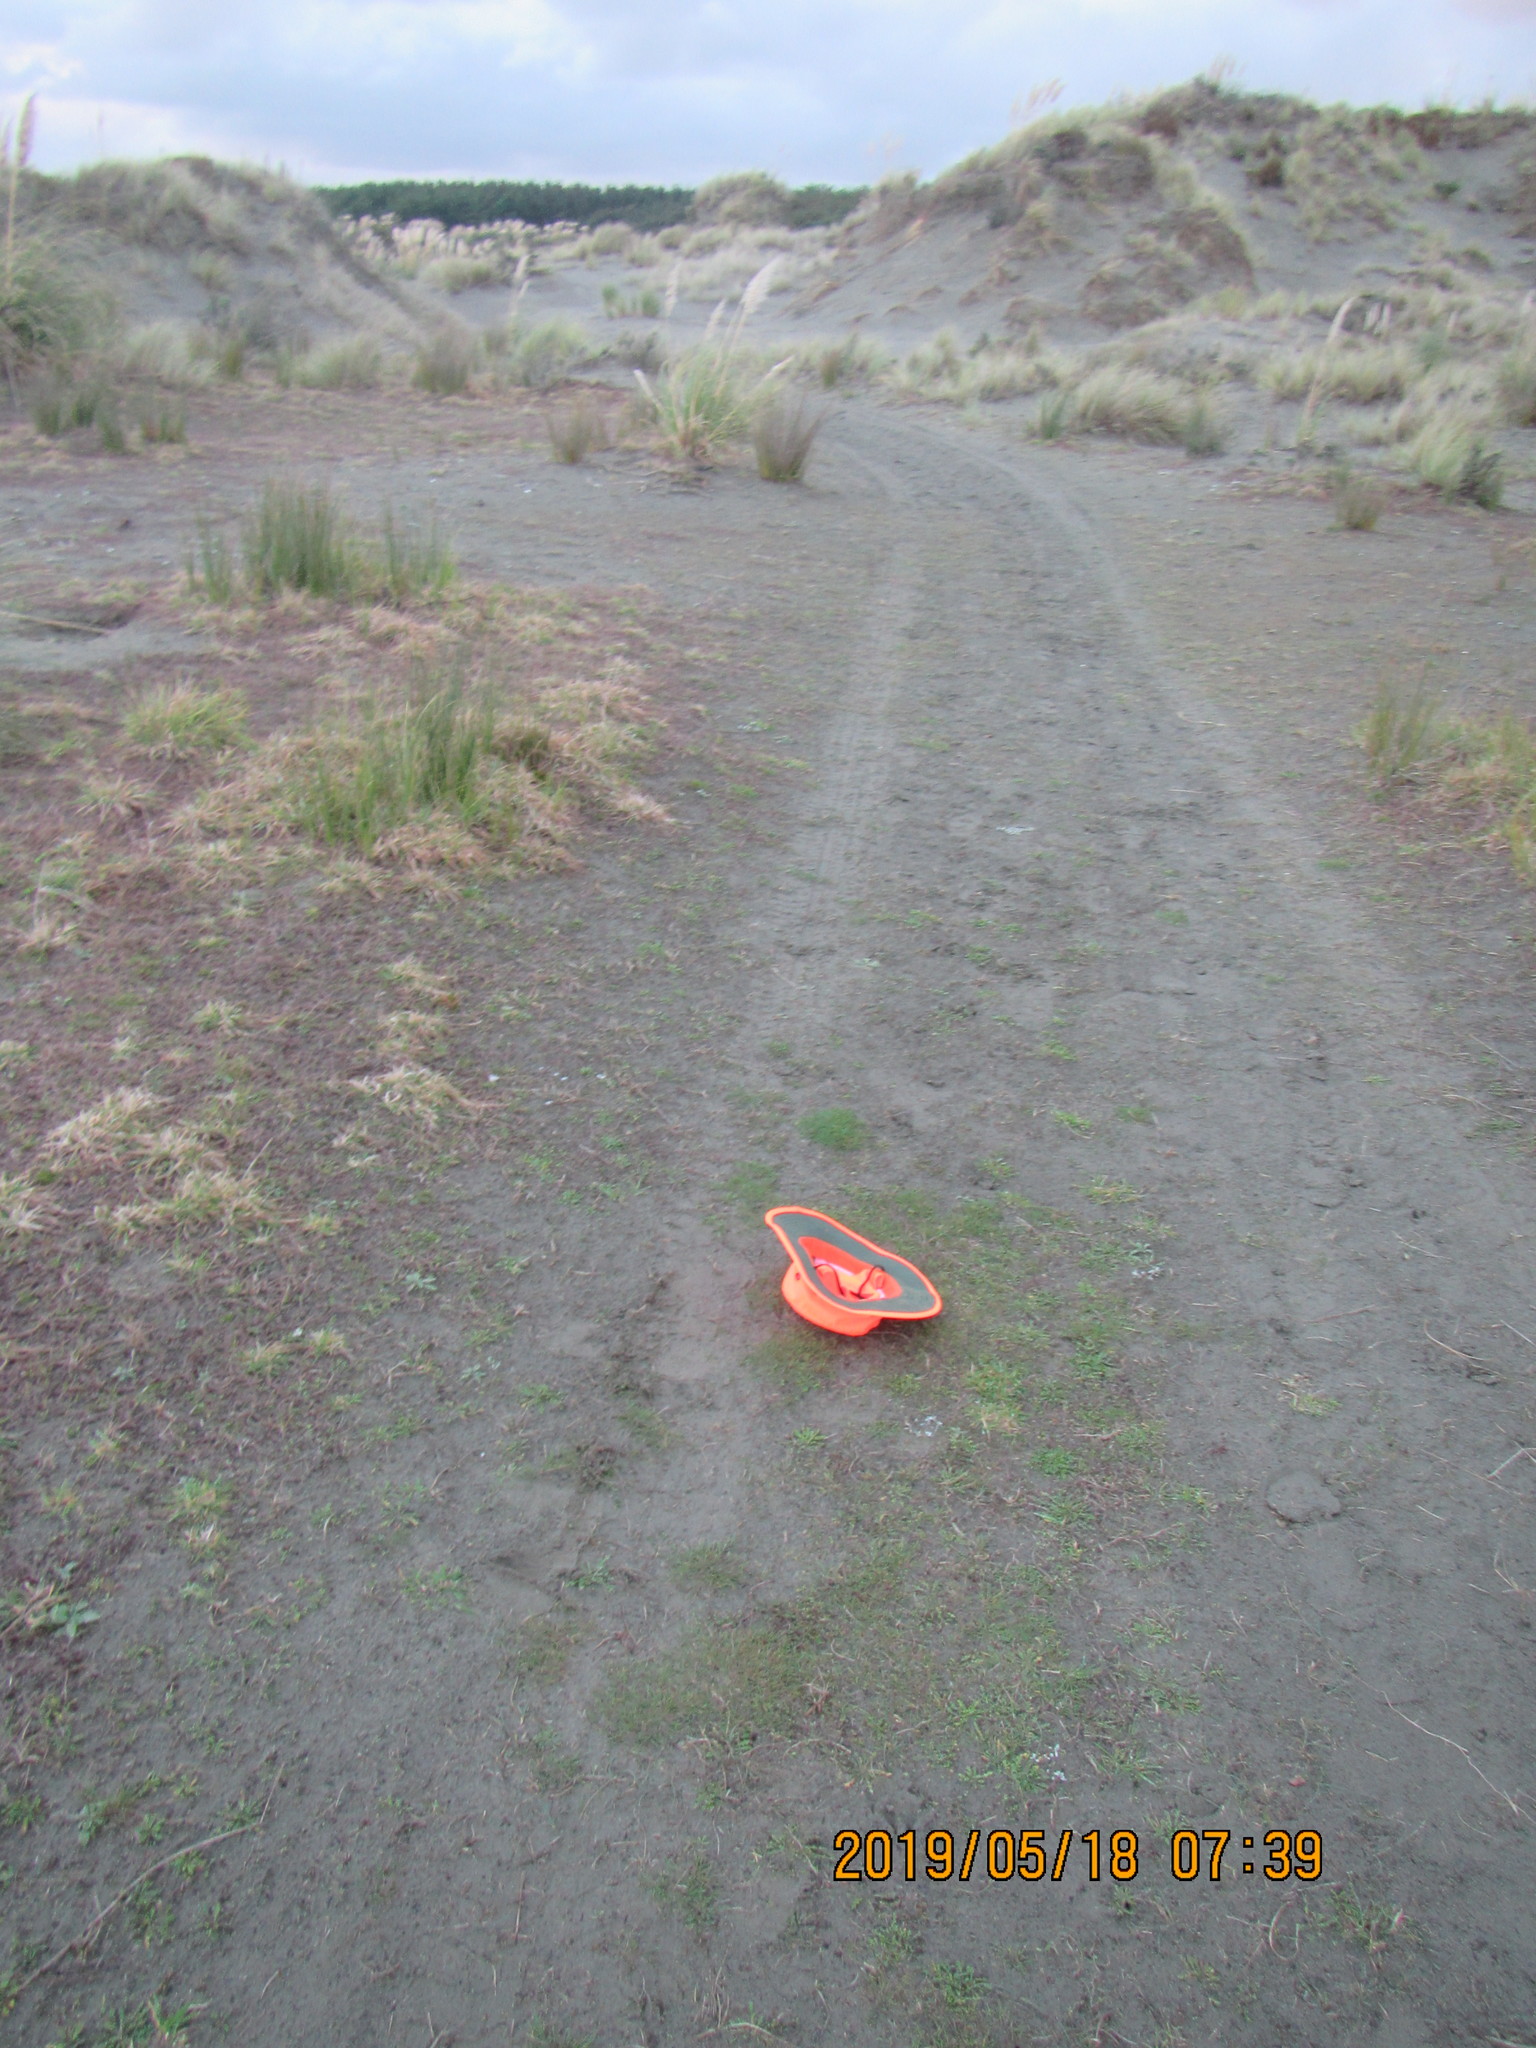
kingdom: Plantae
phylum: Tracheophyta
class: Magnoliopsida
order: Caryophyllales
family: Portulacaceae
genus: Portulaca
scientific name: Portulaca oleracea
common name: Common purslane
